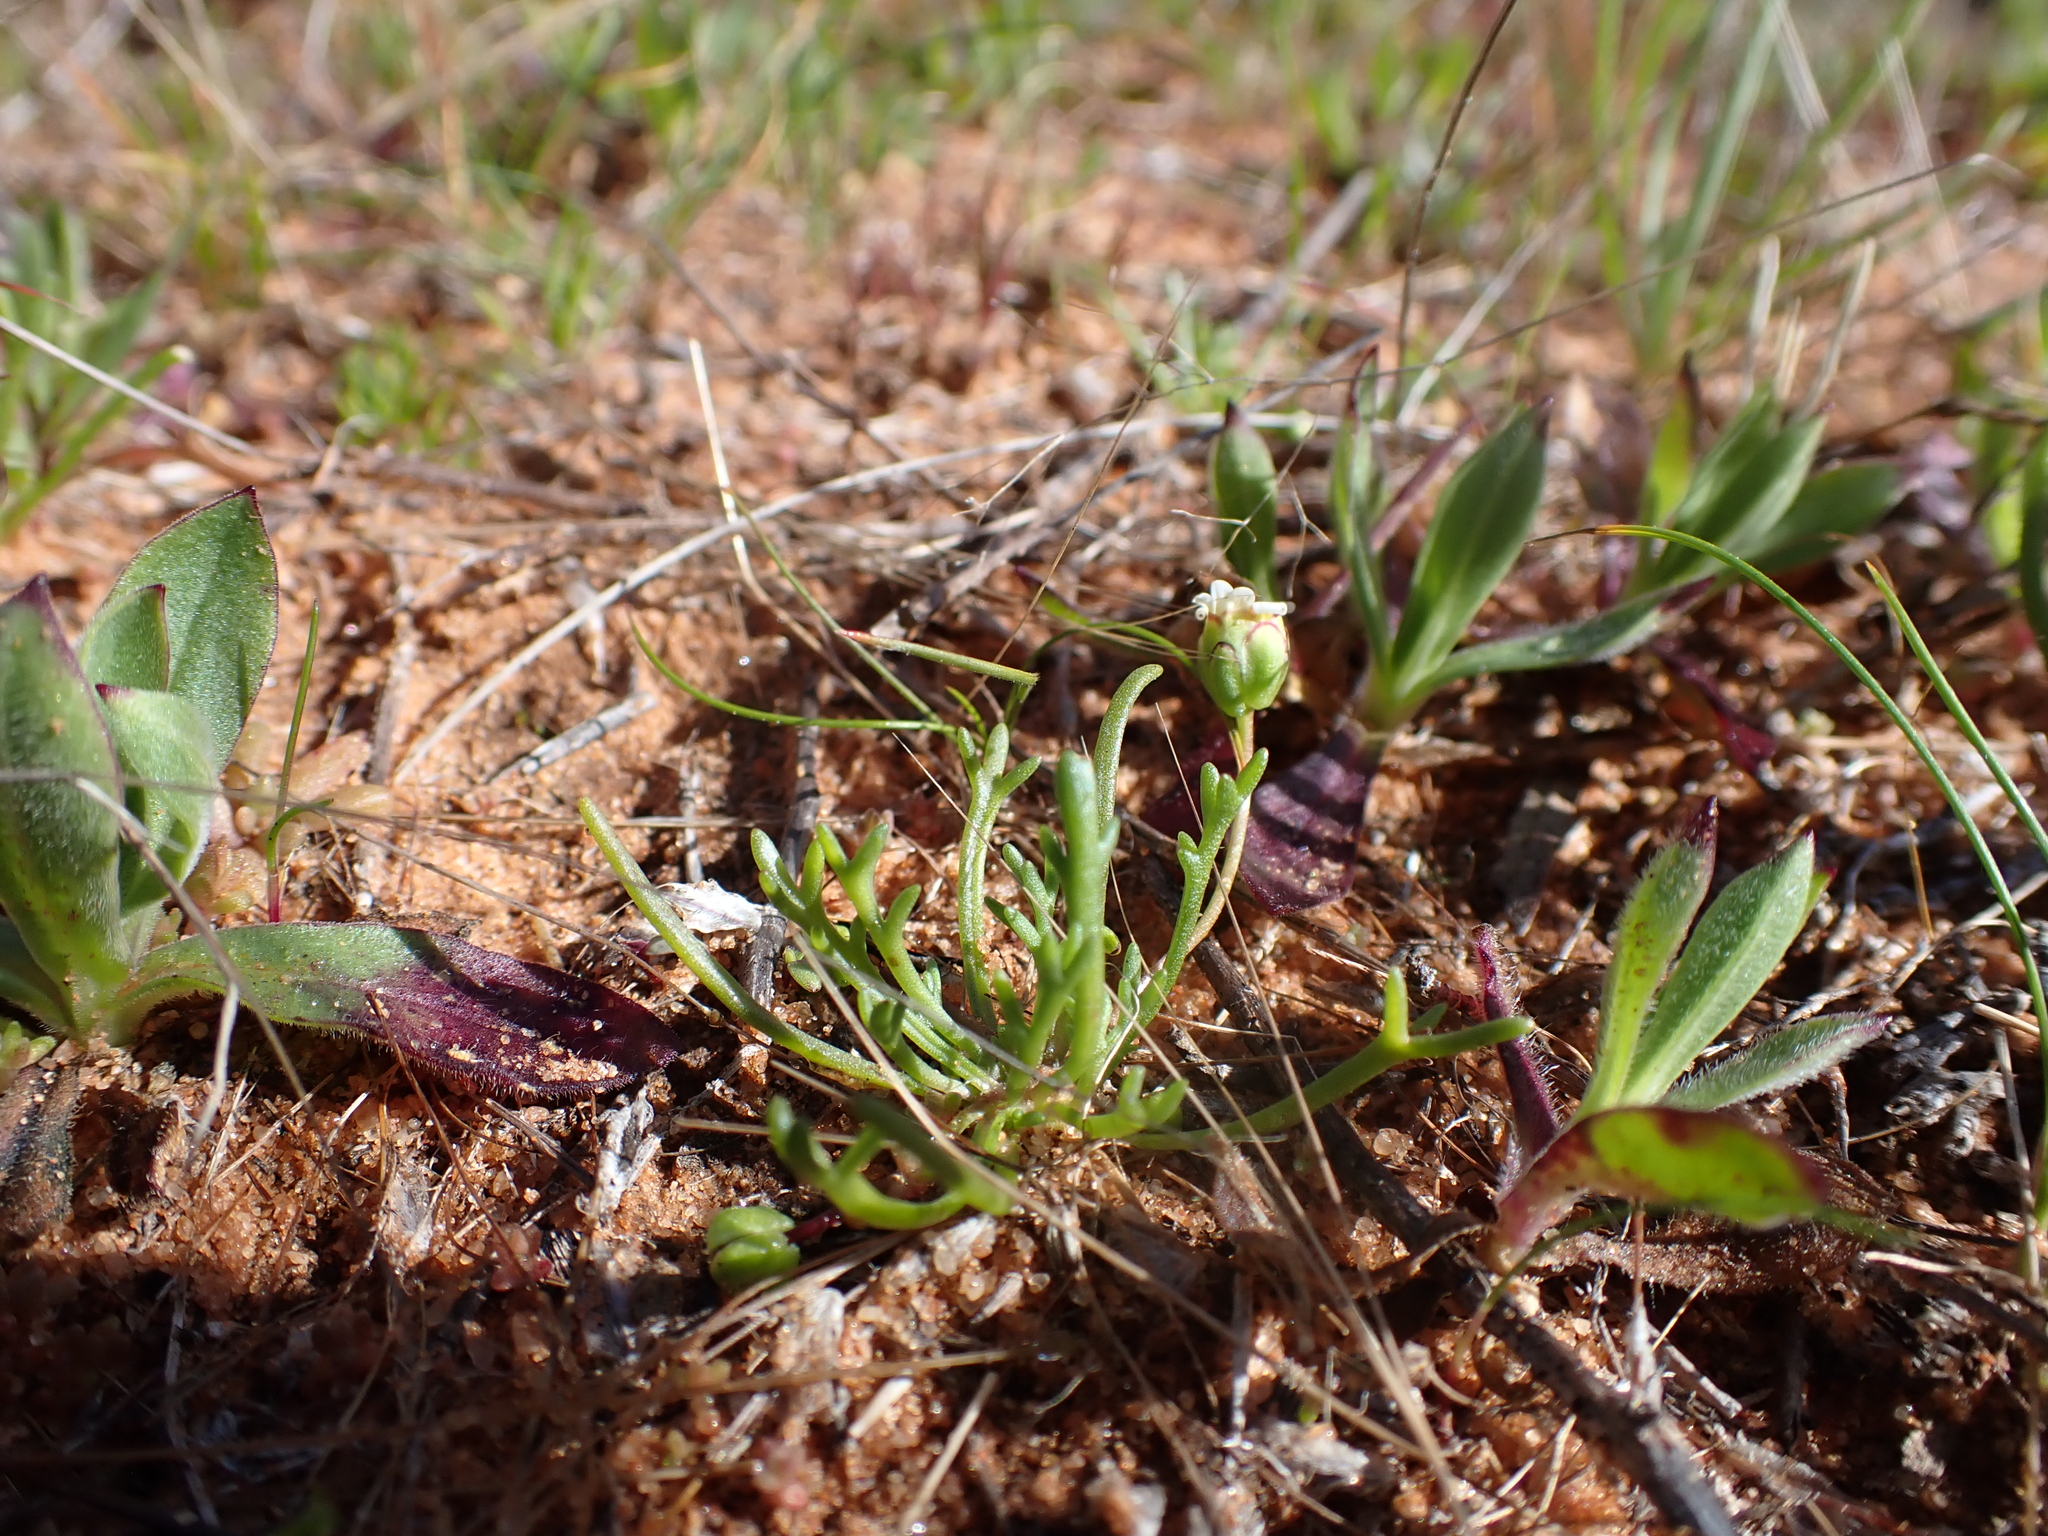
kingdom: Plantae
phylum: Tracheophyta
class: Magnoliopsida
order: Asterales
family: Asteraceae
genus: Brachyscome
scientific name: Brachyscome lineariloba
